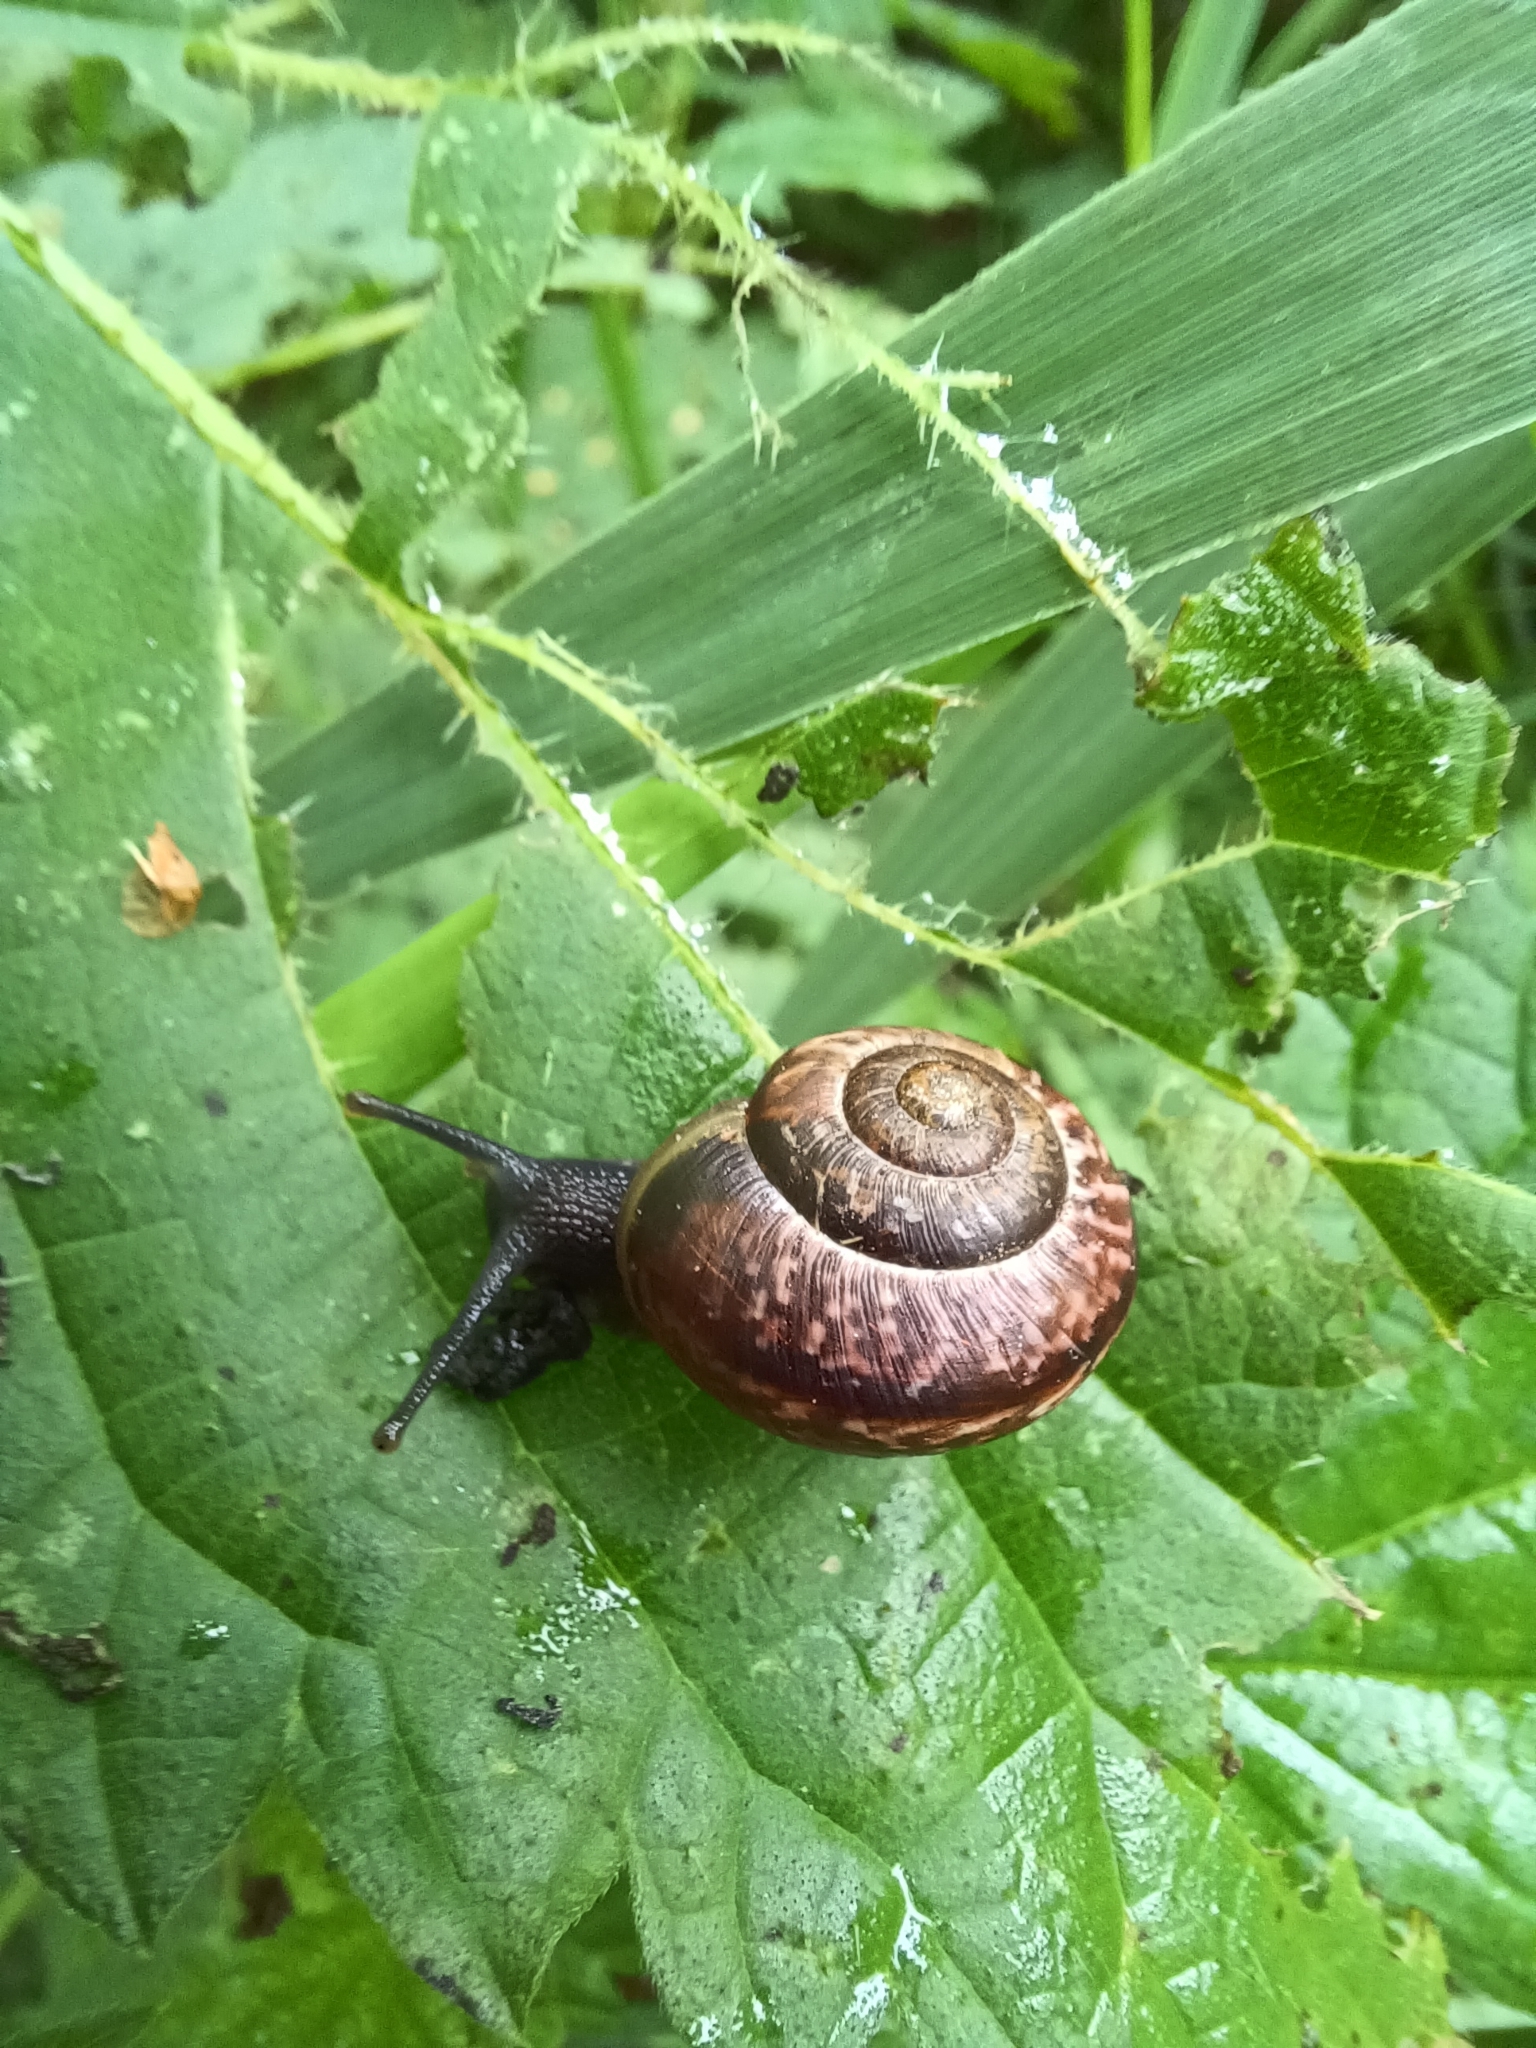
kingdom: Animalia
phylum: Mollusca
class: Gastropoda
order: Stylommatophora
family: Helicidae
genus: Arianta
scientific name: Arianta arbustorum
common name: Copse snail
